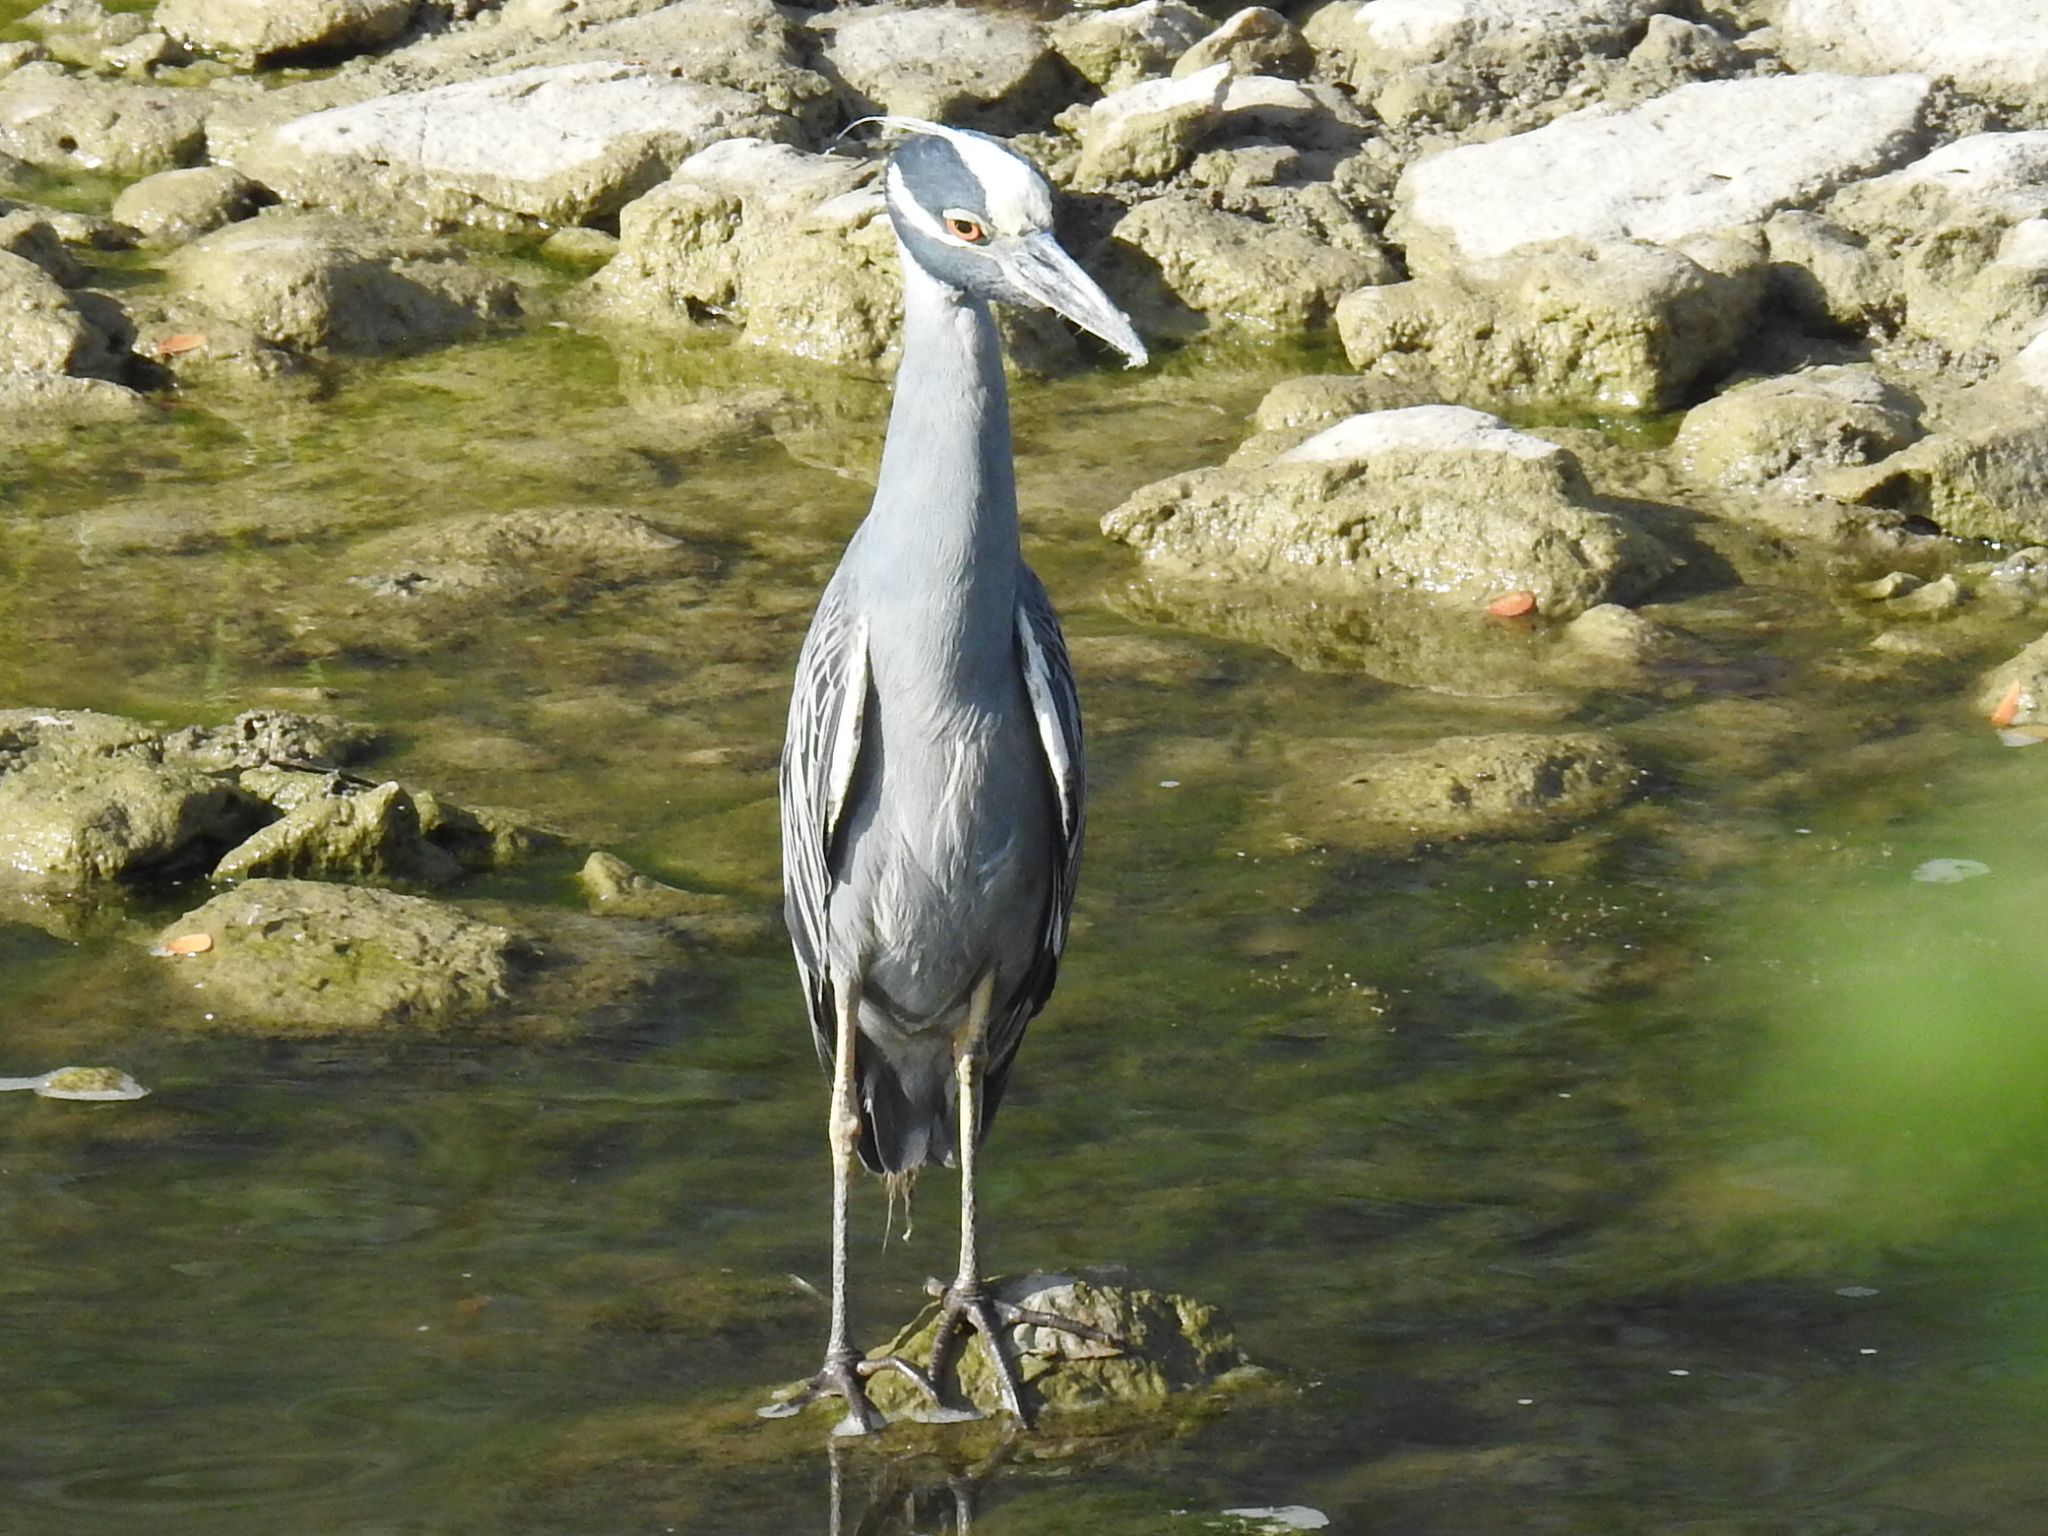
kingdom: Animalia
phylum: Chordata
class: Aves
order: Pelecaniformes
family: Ardeidae
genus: Nyctanassa
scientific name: Nyctanassa violacea
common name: Yellow-crowned night heron
